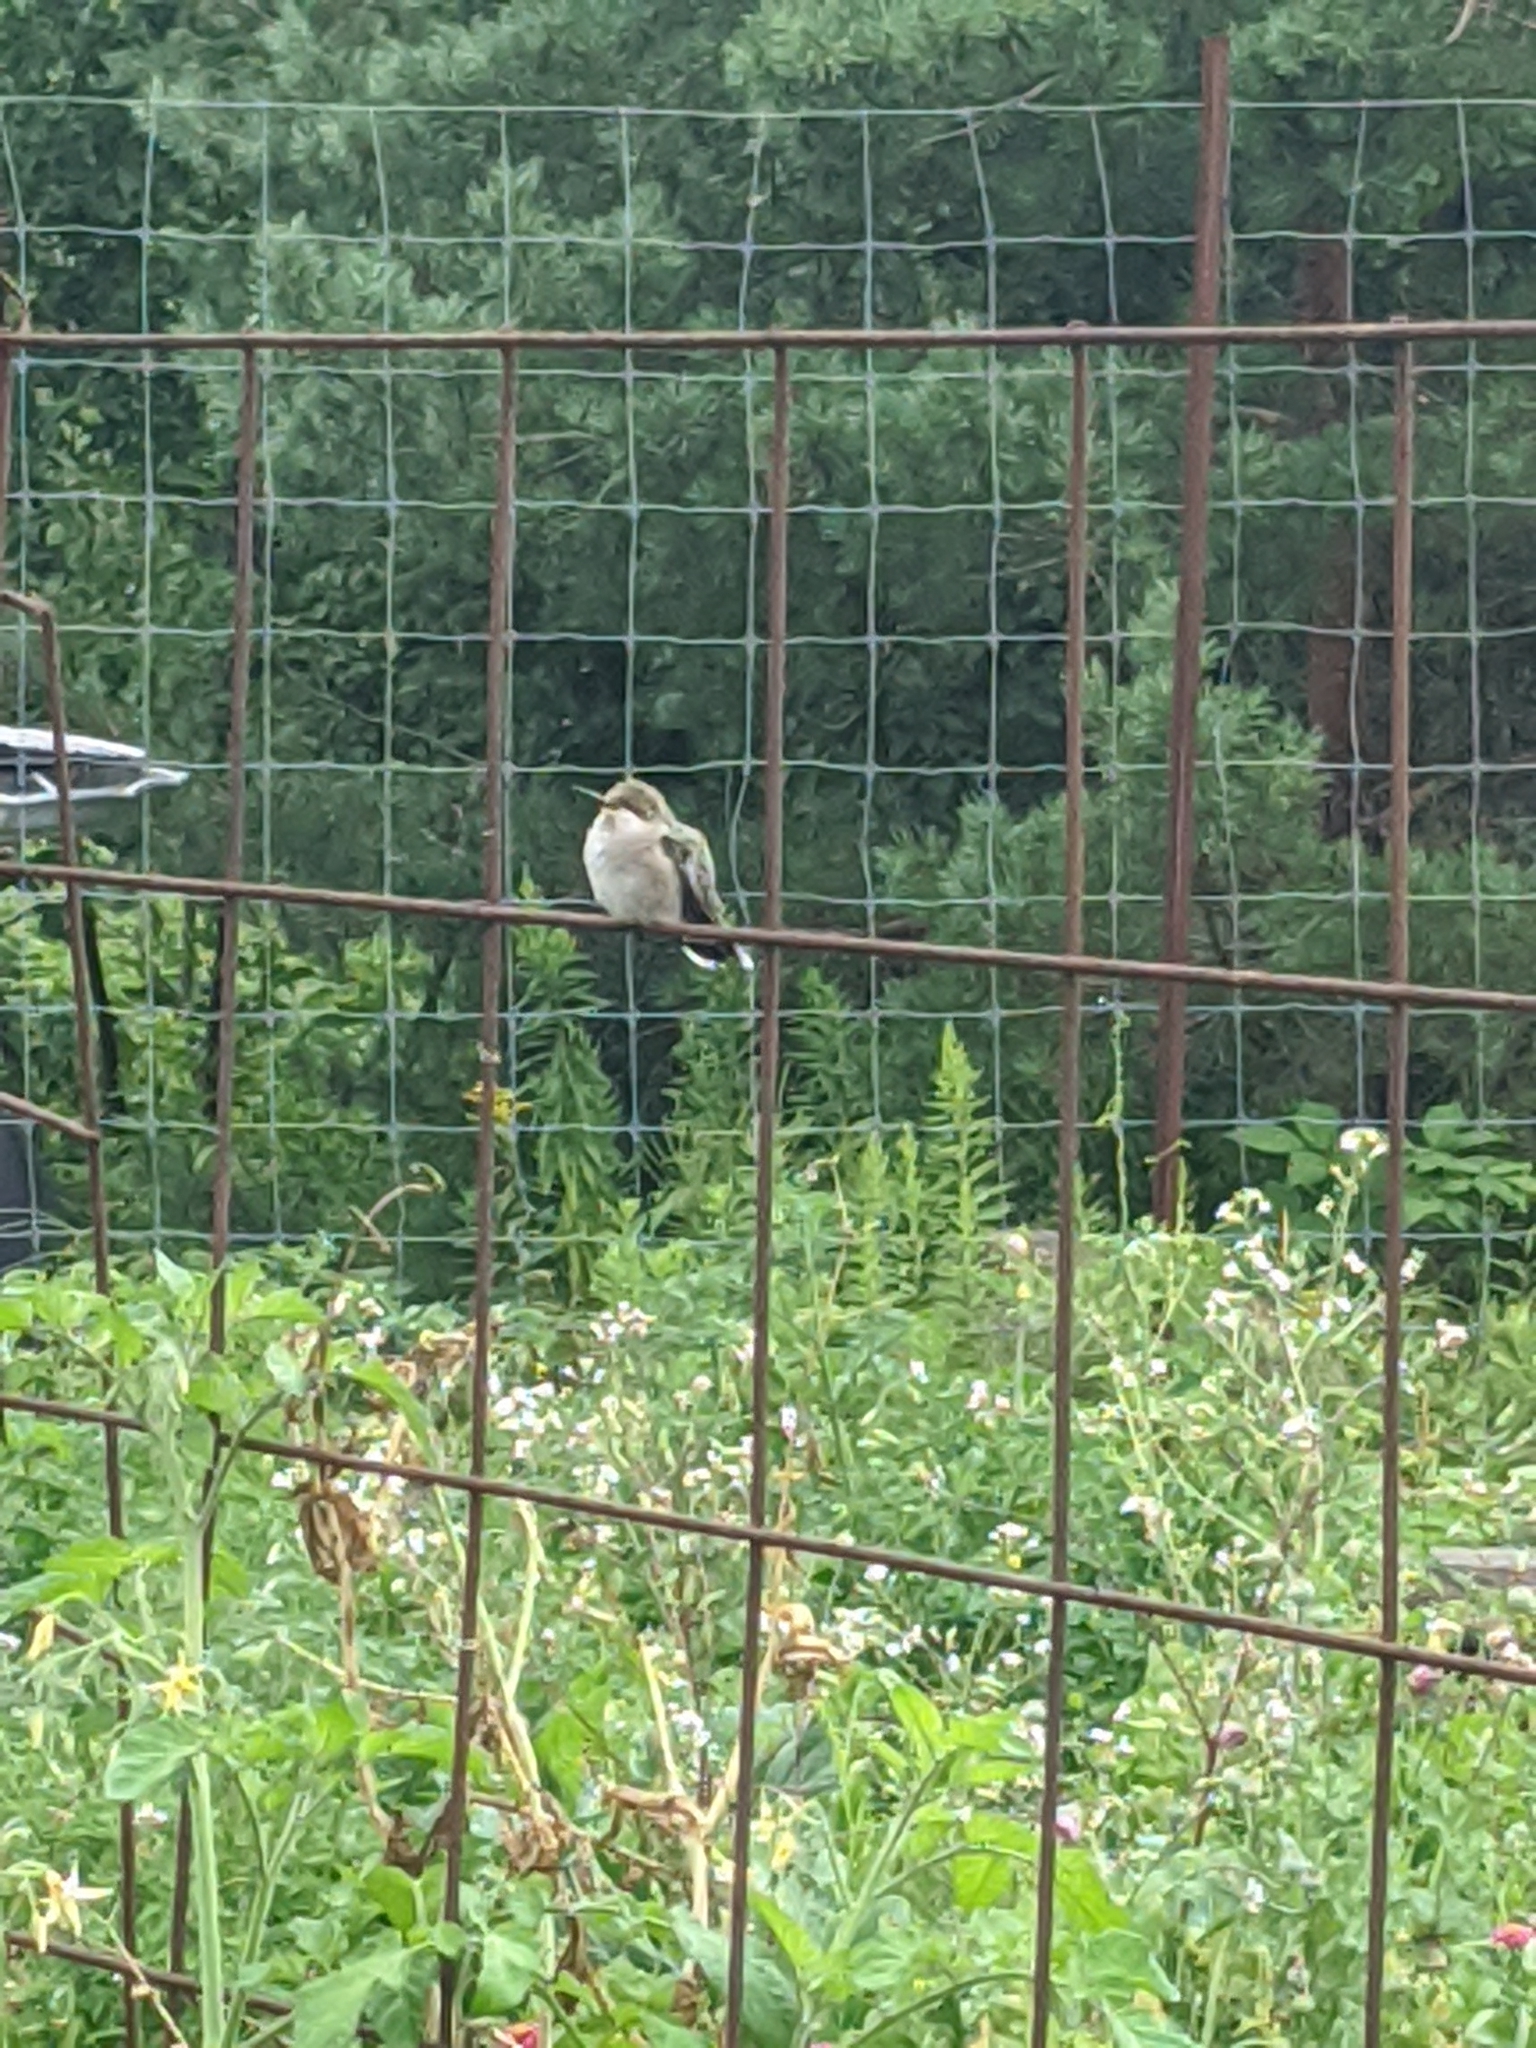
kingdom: Animalia
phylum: Chordata
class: Aves
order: Apodiformes
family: Trochilidae
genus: Archilochus
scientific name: Archilochus colubris
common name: Ruby-throated hummingbird
